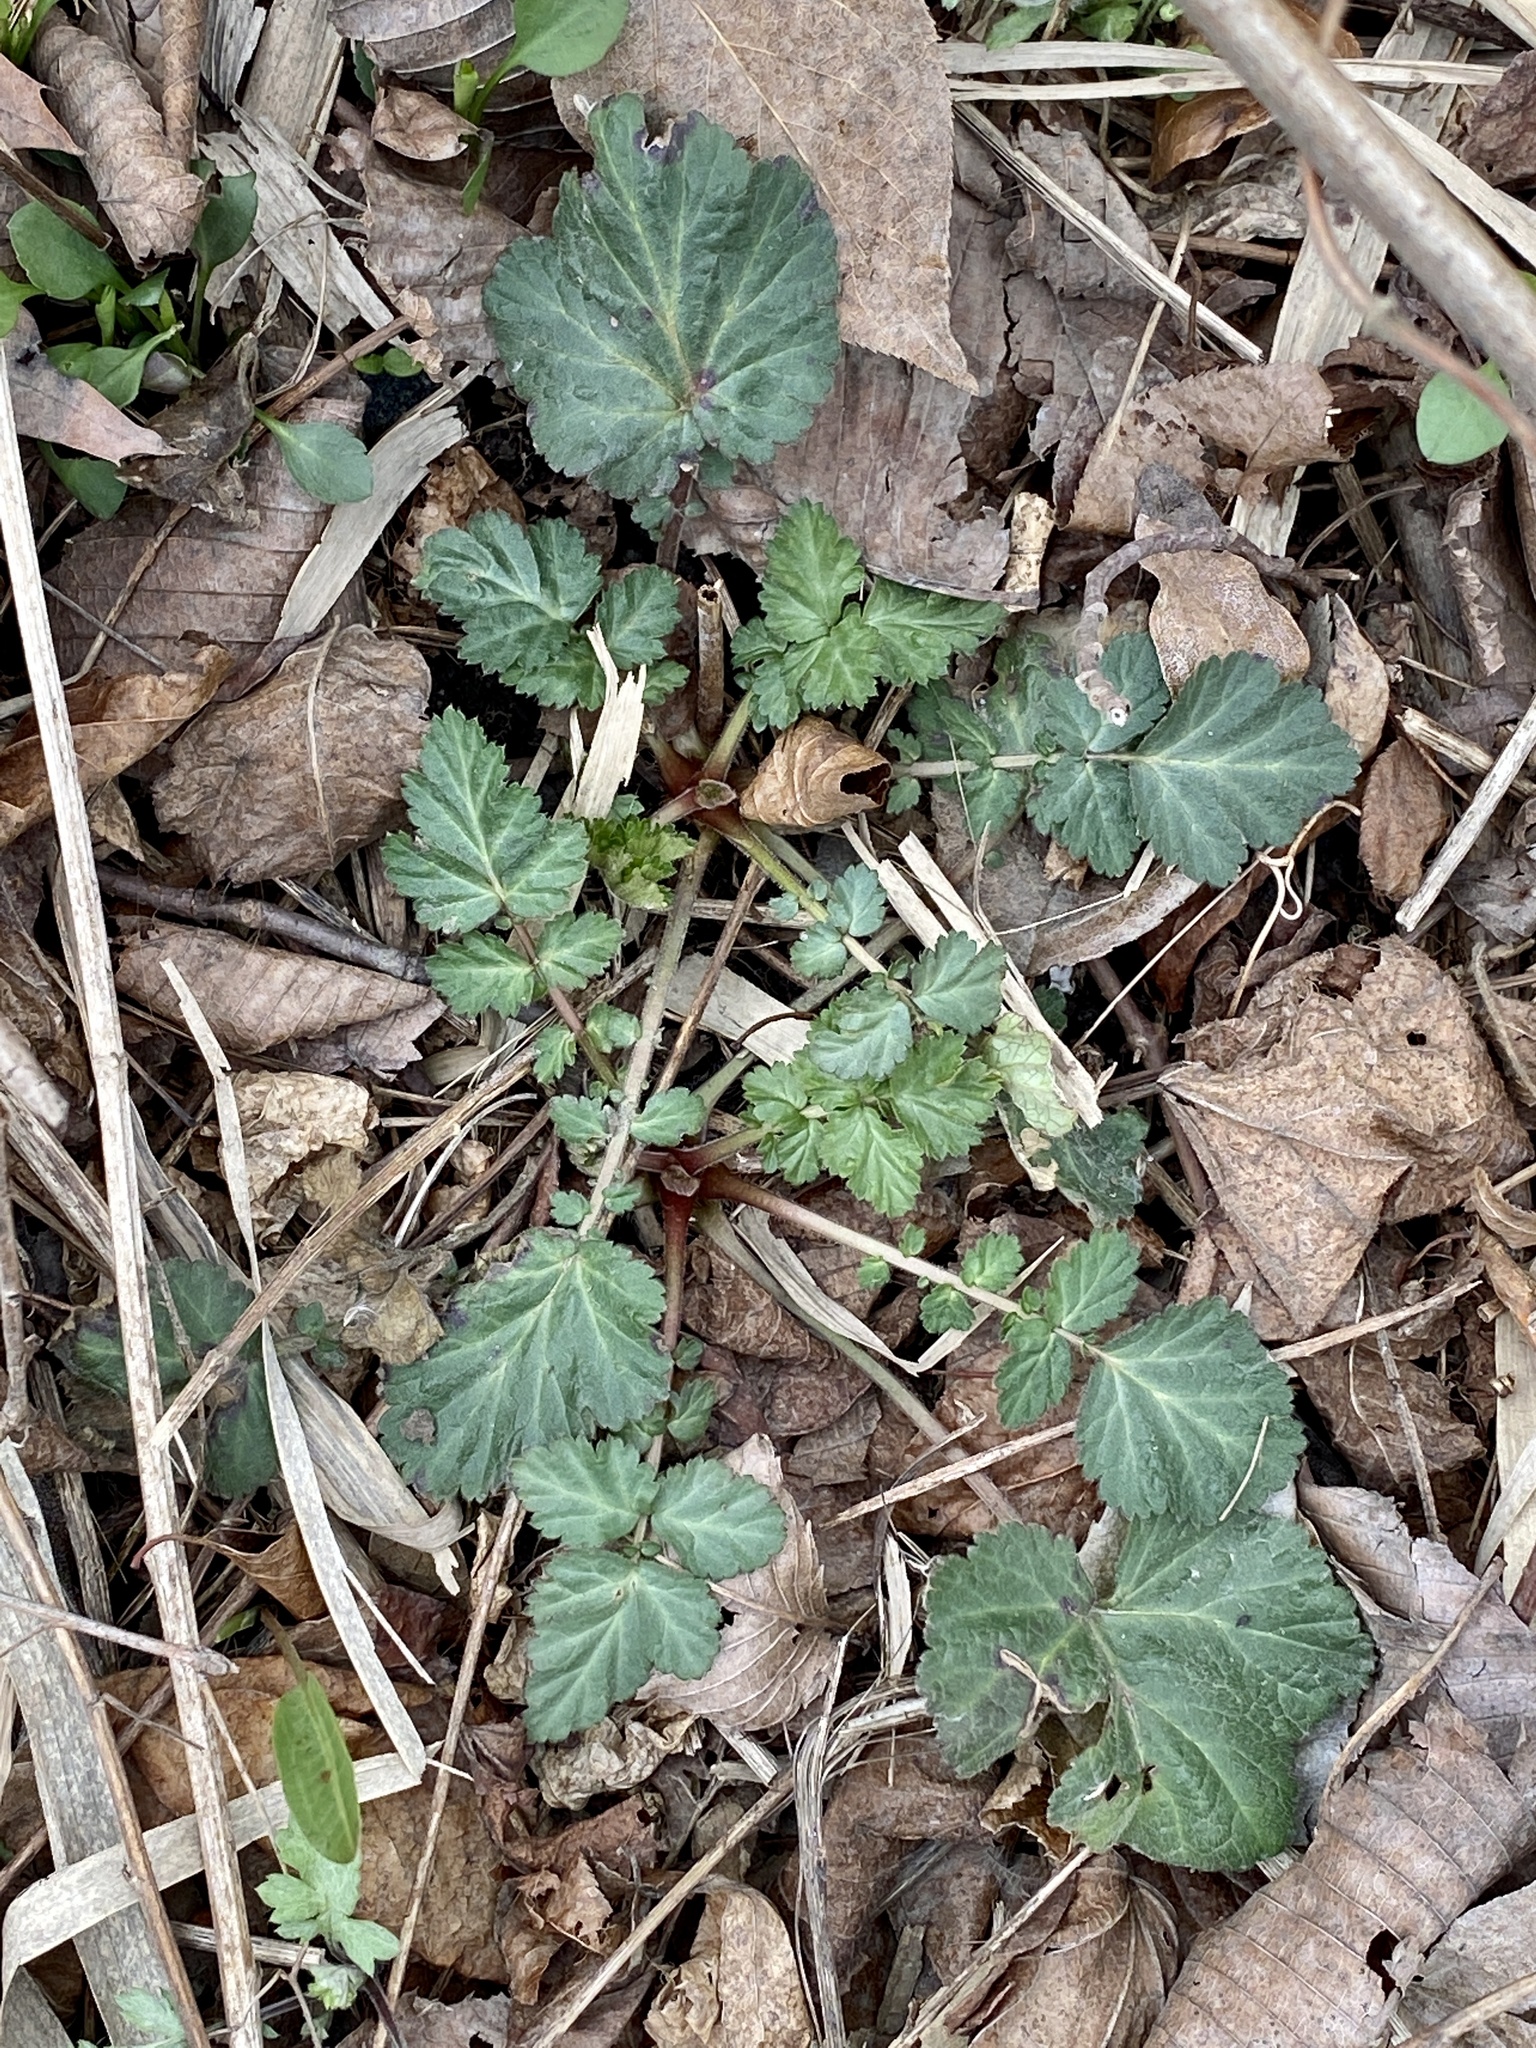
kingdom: Plantae
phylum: Tracheophyta
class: Magnoliopsida
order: Rosales
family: Rosaceae
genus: Geum
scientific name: Geum canadense
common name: White avens
